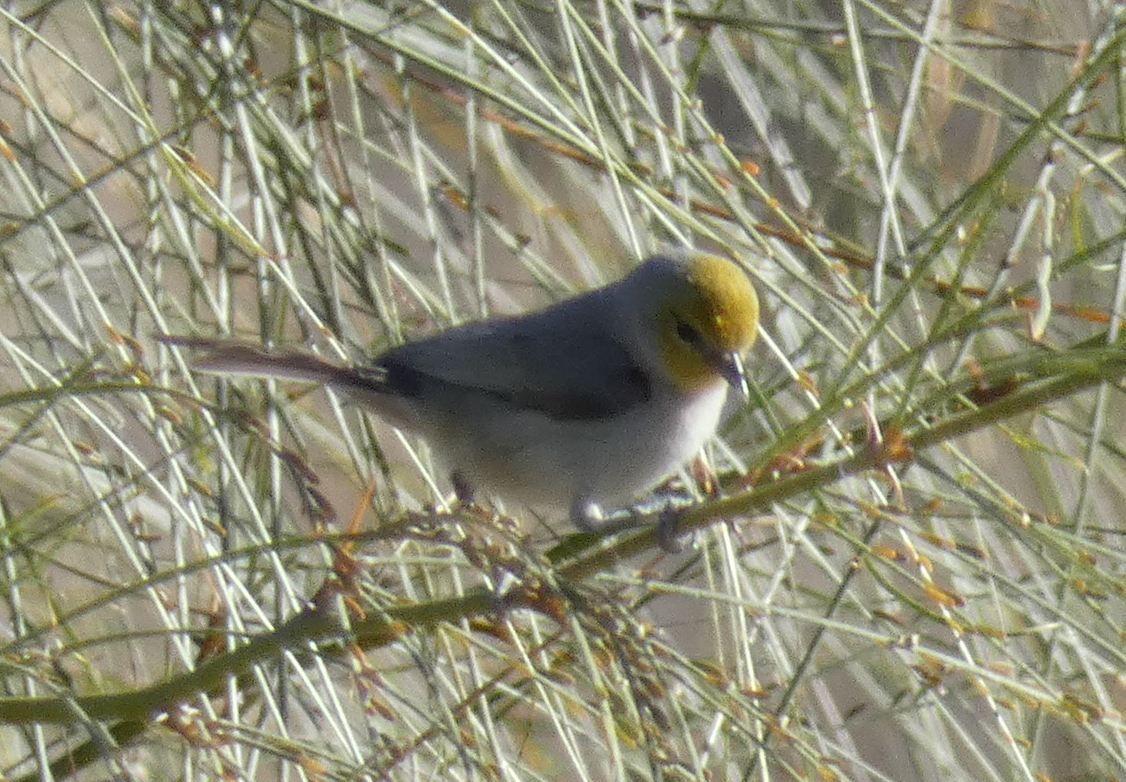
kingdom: Animalia
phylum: Chordata
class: Aves
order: Passeriformes
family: Remizidae
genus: Auriparus
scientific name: Auriparus flaviceps
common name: Verdin
